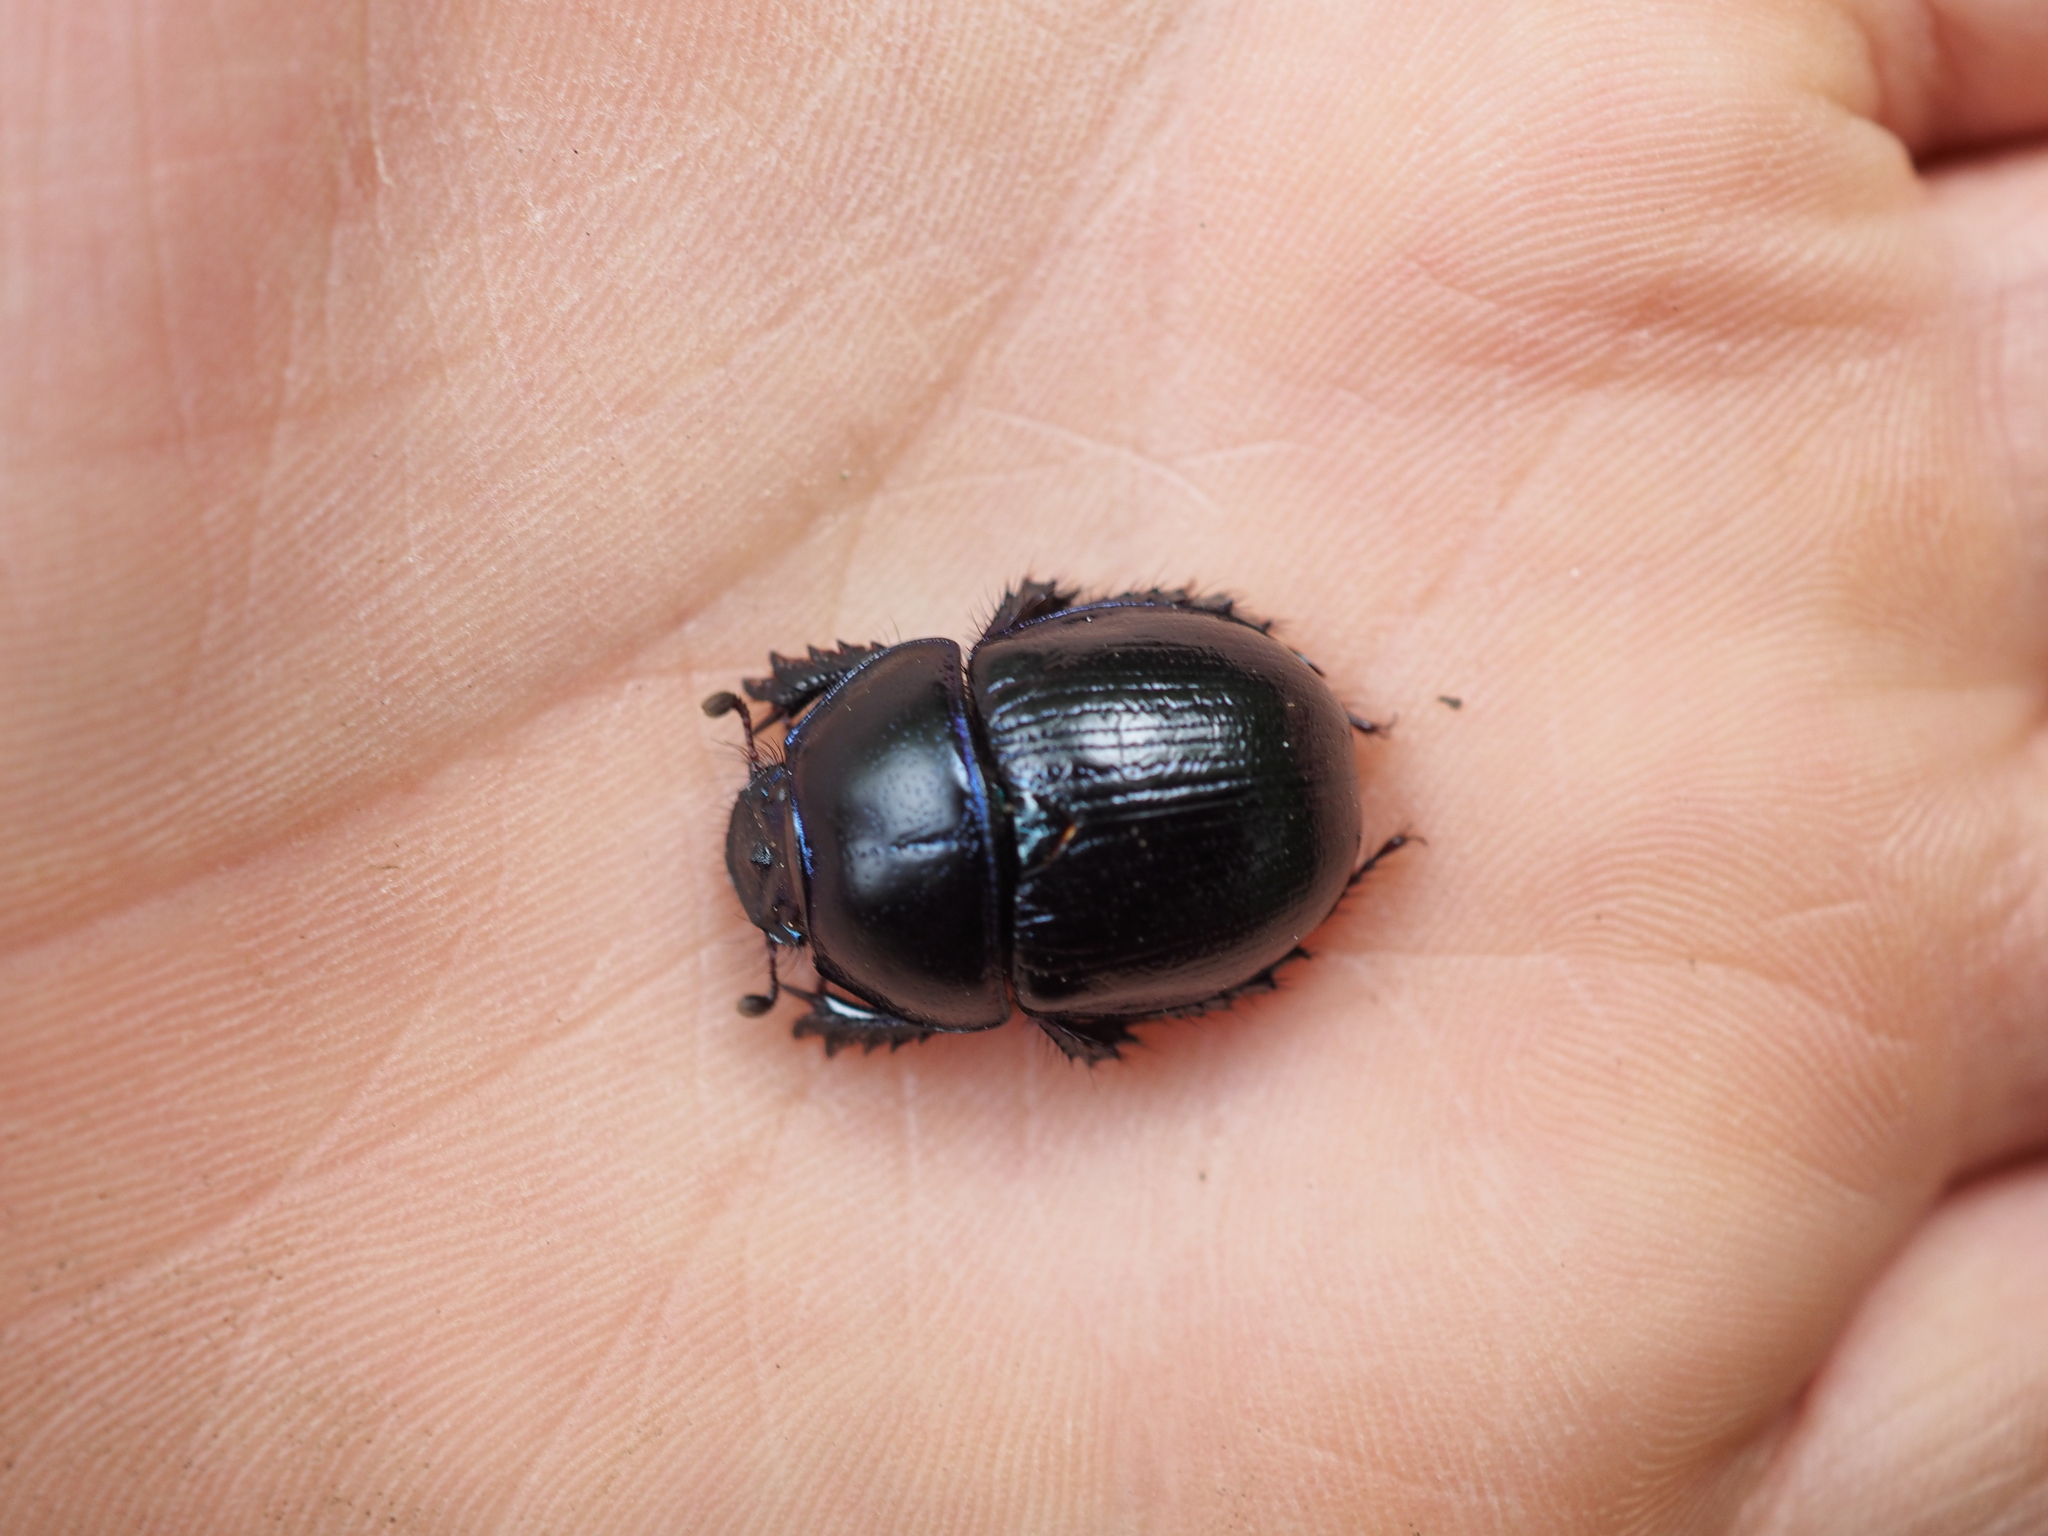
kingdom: Animalia
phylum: Arthropoda
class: Insecta
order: Coleoptera
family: Geotrupidae
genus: Anoplotrupes
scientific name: Anoplotrupes stercorosus
